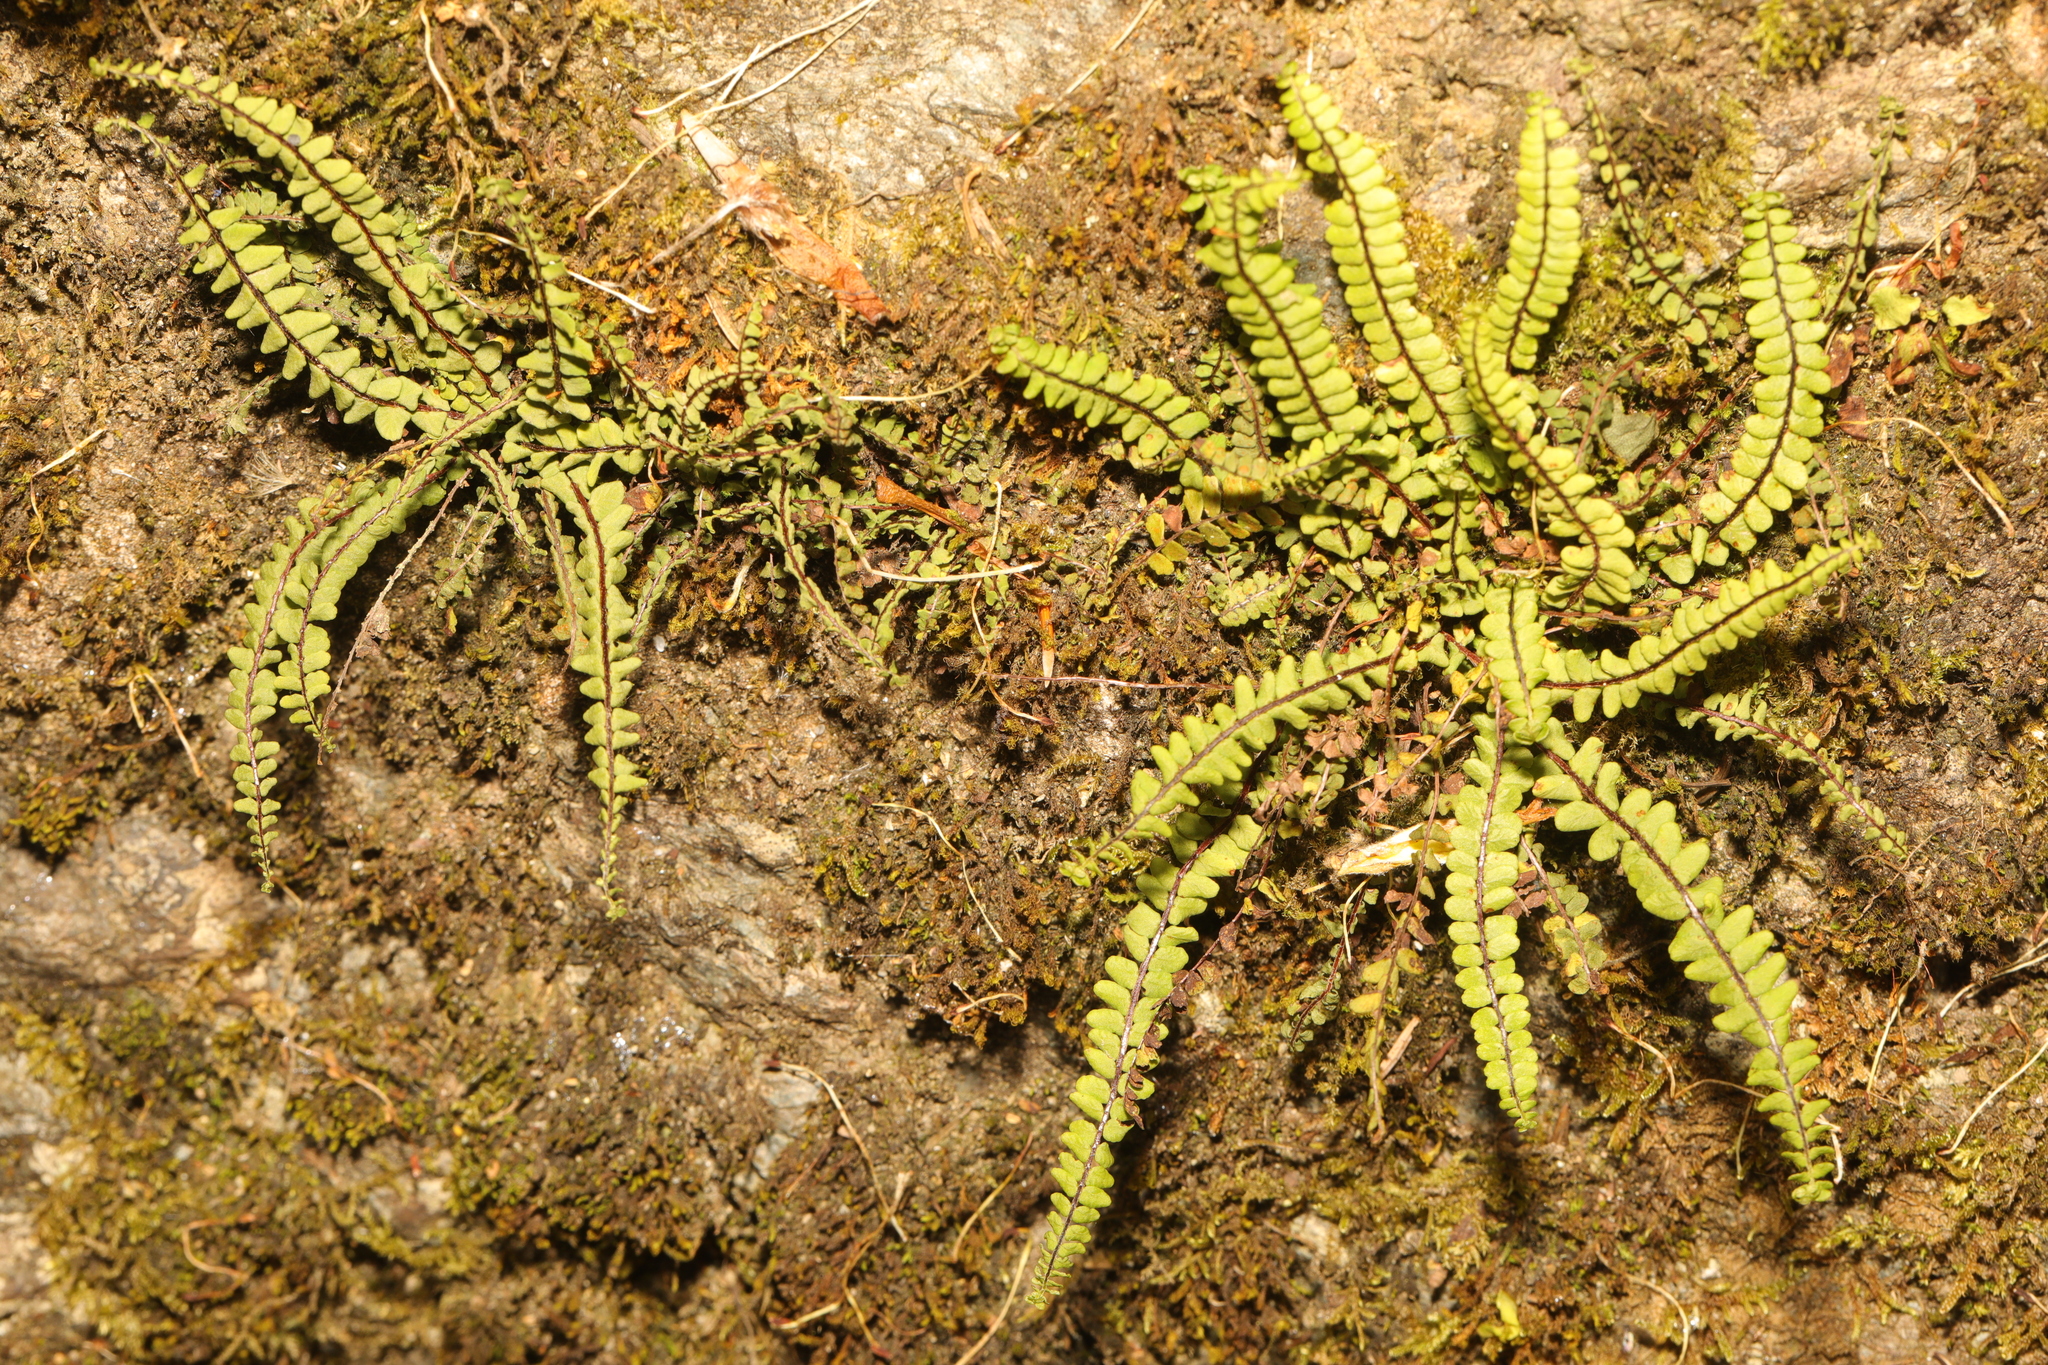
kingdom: Plantae
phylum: Tracheophyta
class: Polypodiopsida
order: Polypodiales
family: Aspleniaceae
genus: Asplenium
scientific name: Asplenium trichomanes
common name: Maidenhair spleenwort
